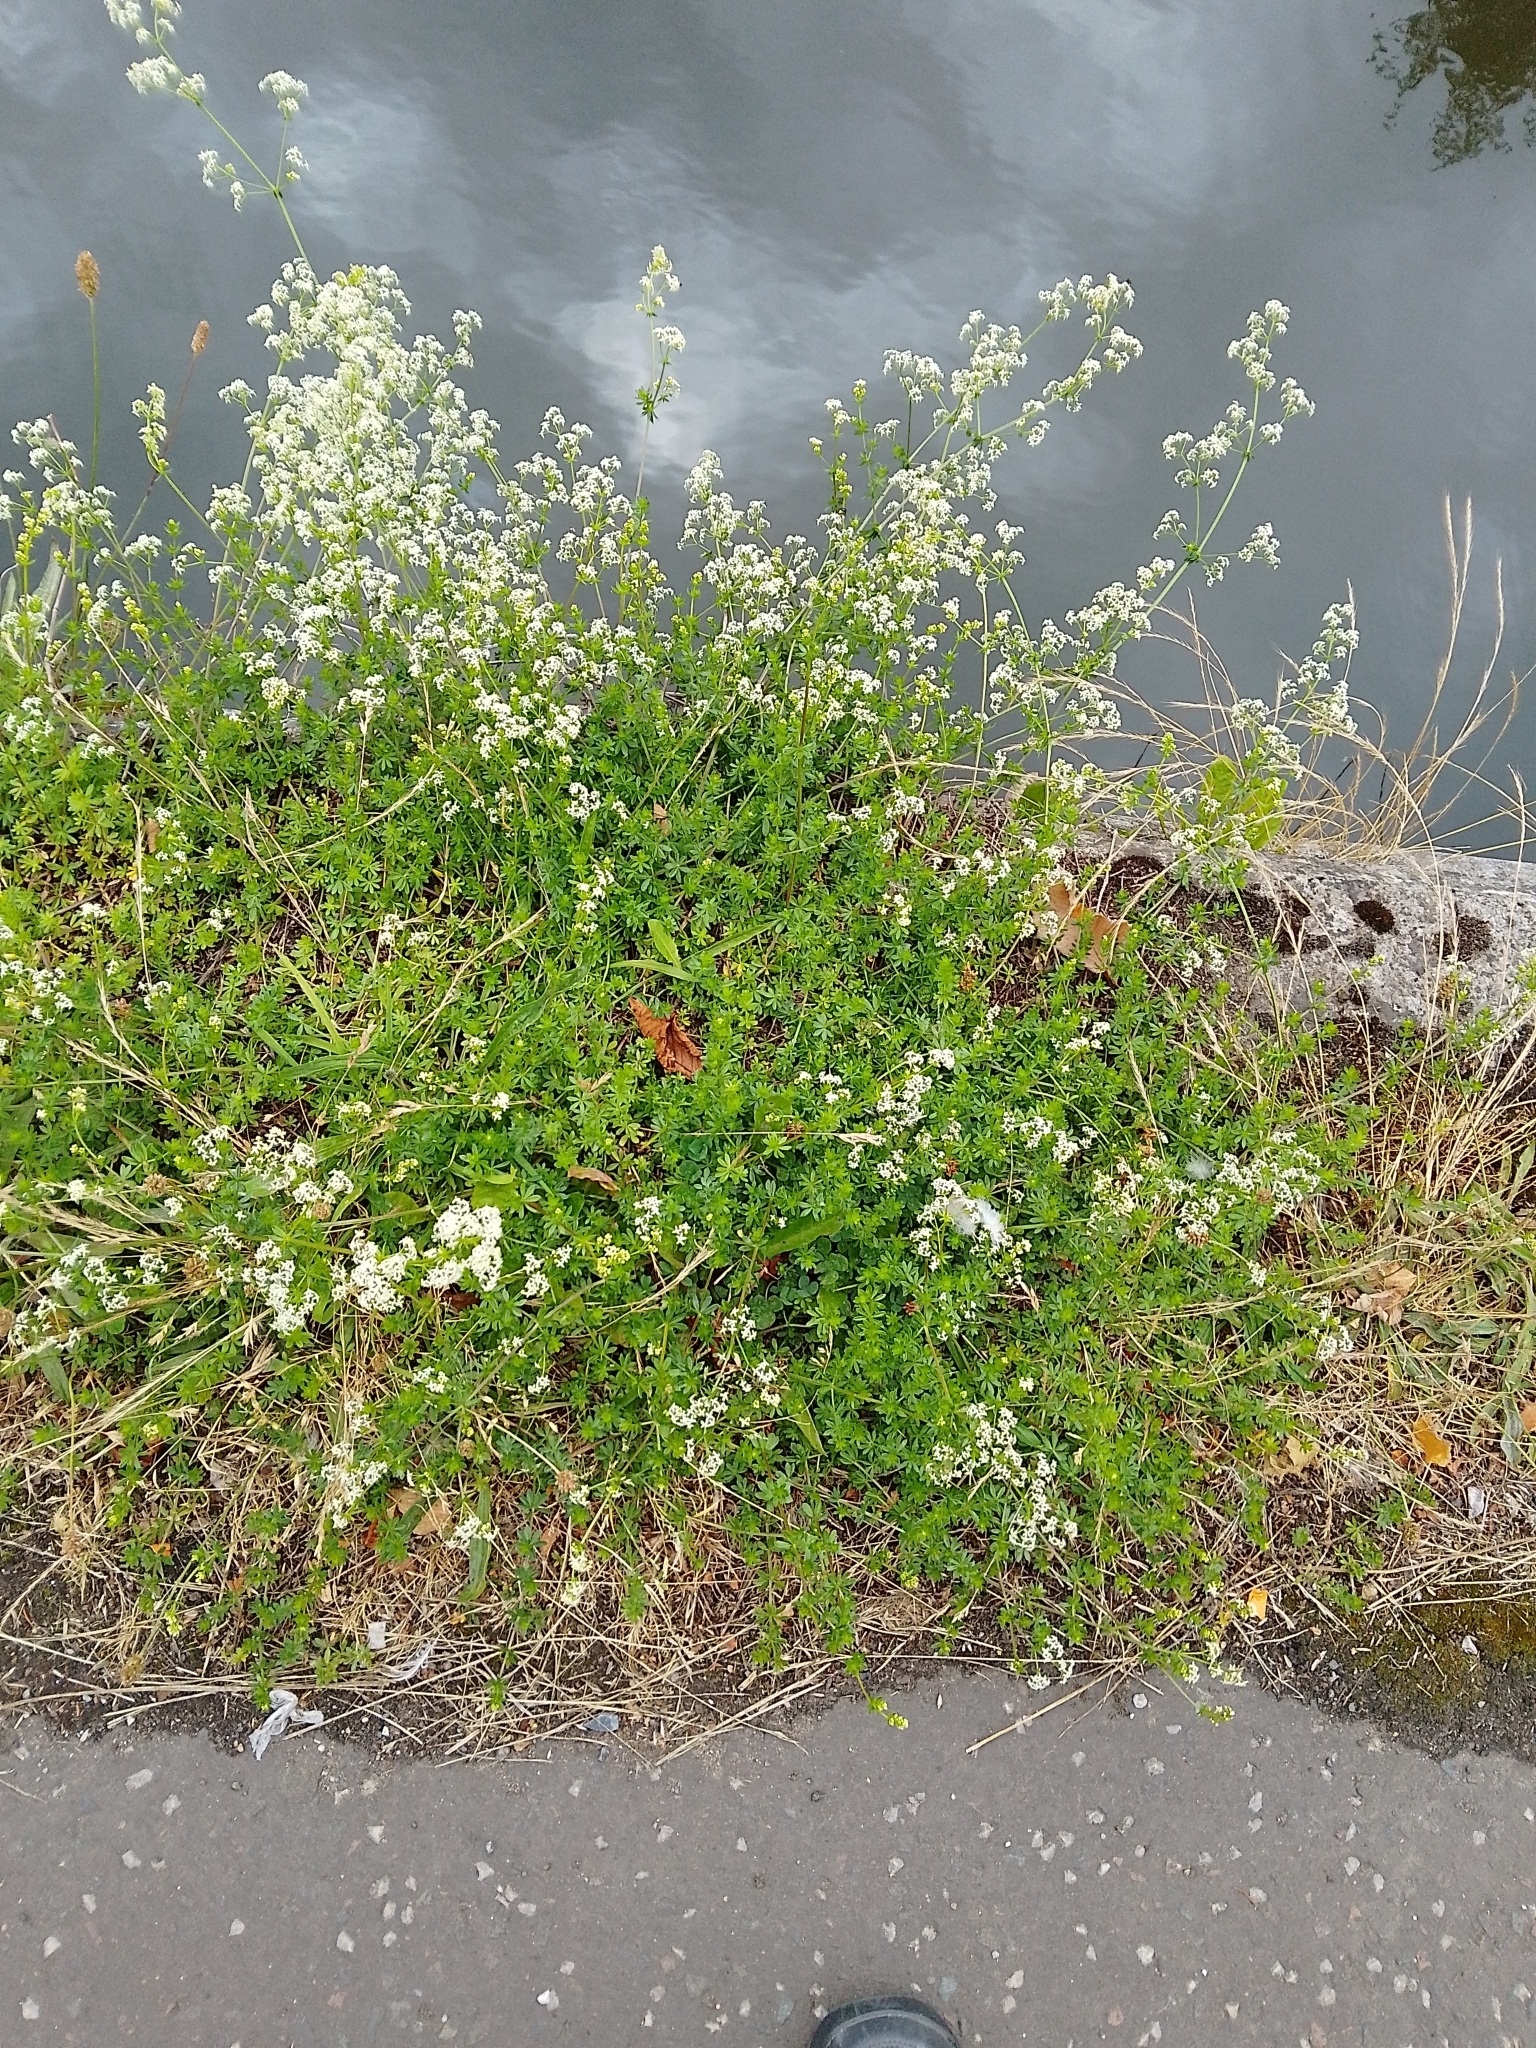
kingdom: Plantae
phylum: Tracheophyta
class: Magnoliopsida
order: Gentianales
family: Rubiaceae
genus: Galium
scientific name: Galium mollugo
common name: Hedge bedstraw
